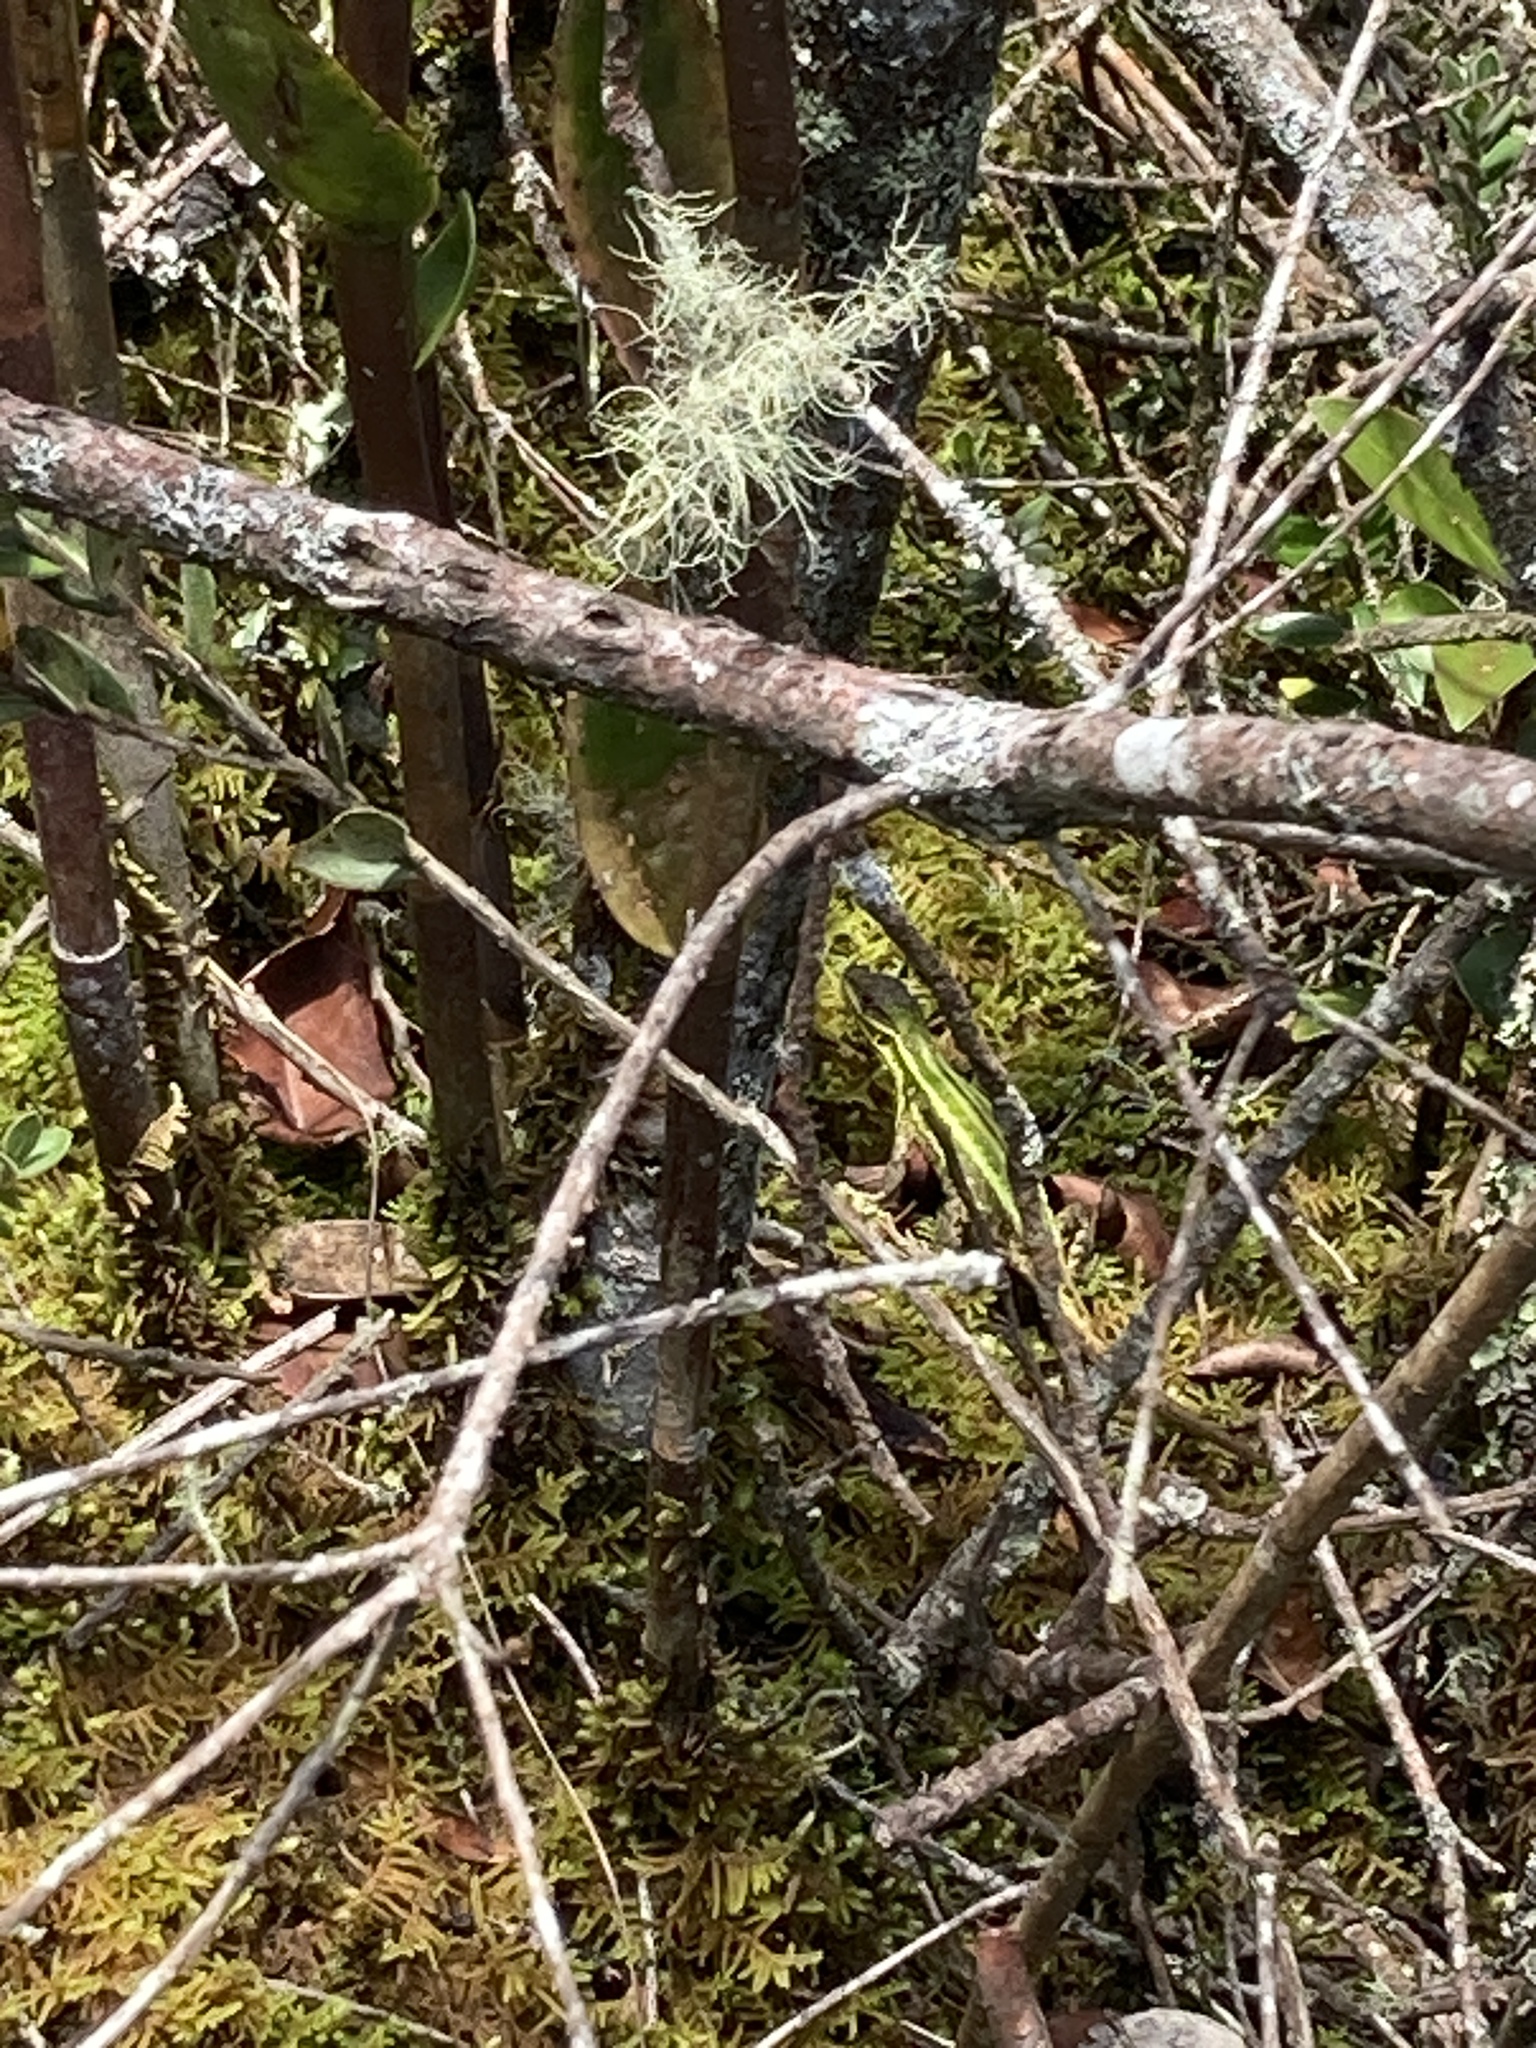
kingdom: Animalia
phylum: Chordata
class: Squamata
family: Tropiduridae
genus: Stenocercus
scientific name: Stenocercus trachycephalus
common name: Duméril's whorltail iguana
